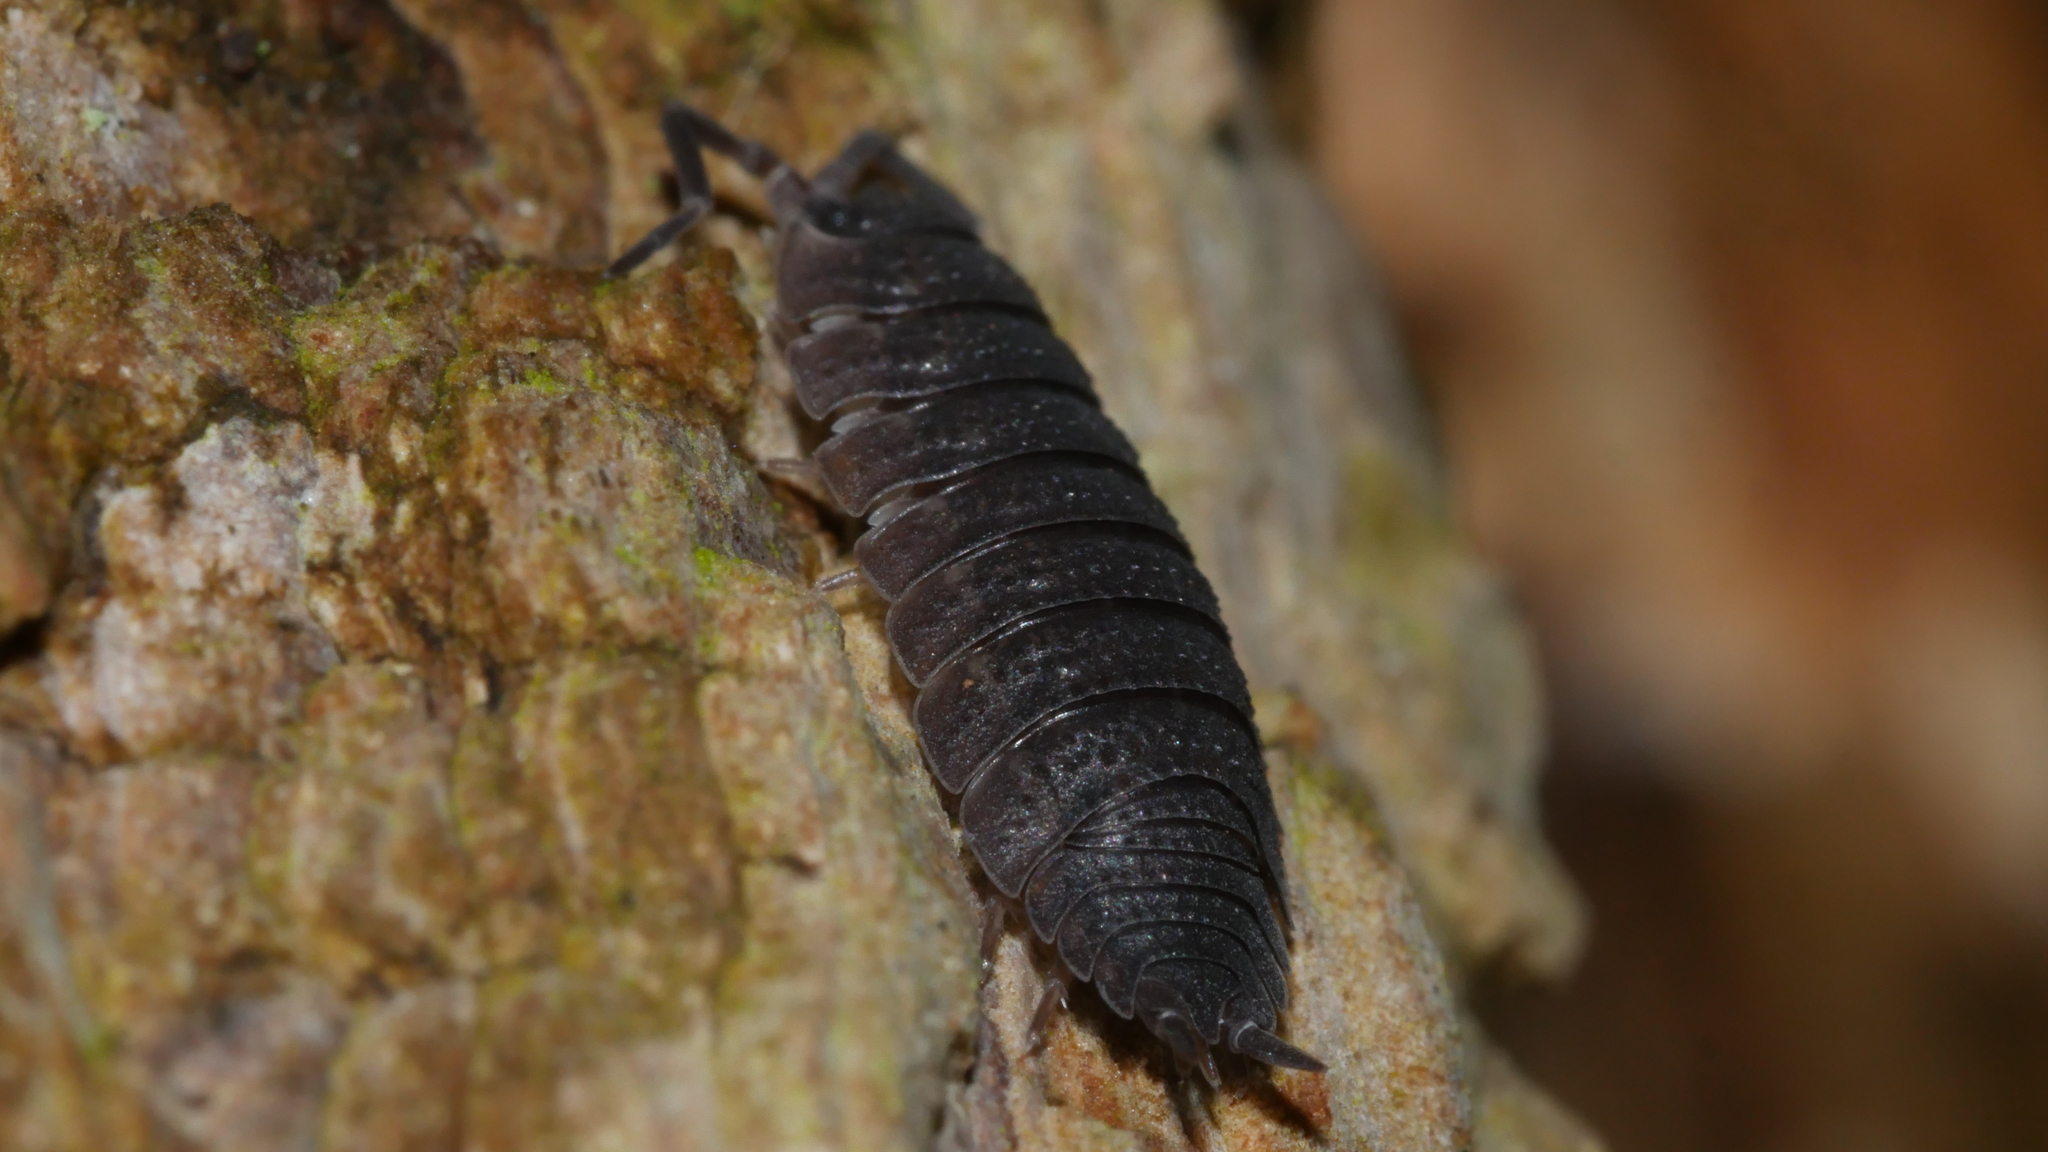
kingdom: Animalia
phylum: Arthropoda
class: Malacostraca
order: Isopoda
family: Porcellionidae
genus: Porcellio
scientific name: Porcellio scaber
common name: Common rough woodlouse
